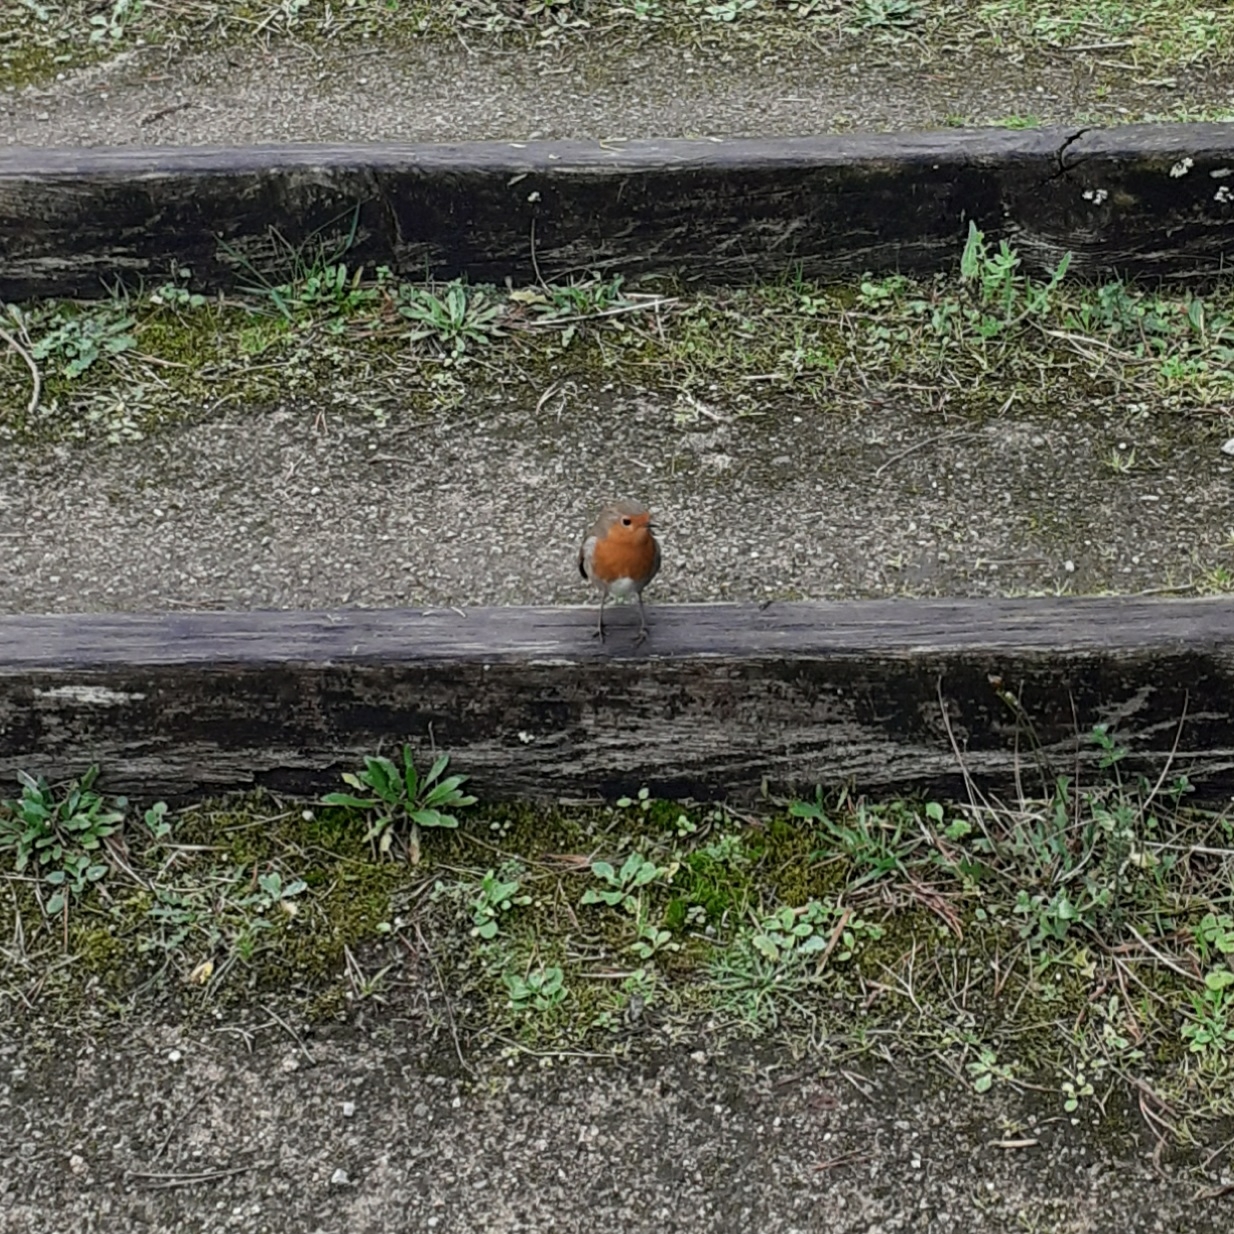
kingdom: Animalia
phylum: Chordata
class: Aves
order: Passeriformes
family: Muscicapidae
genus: Erithacus
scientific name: Erithacus rubecula
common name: European robin
